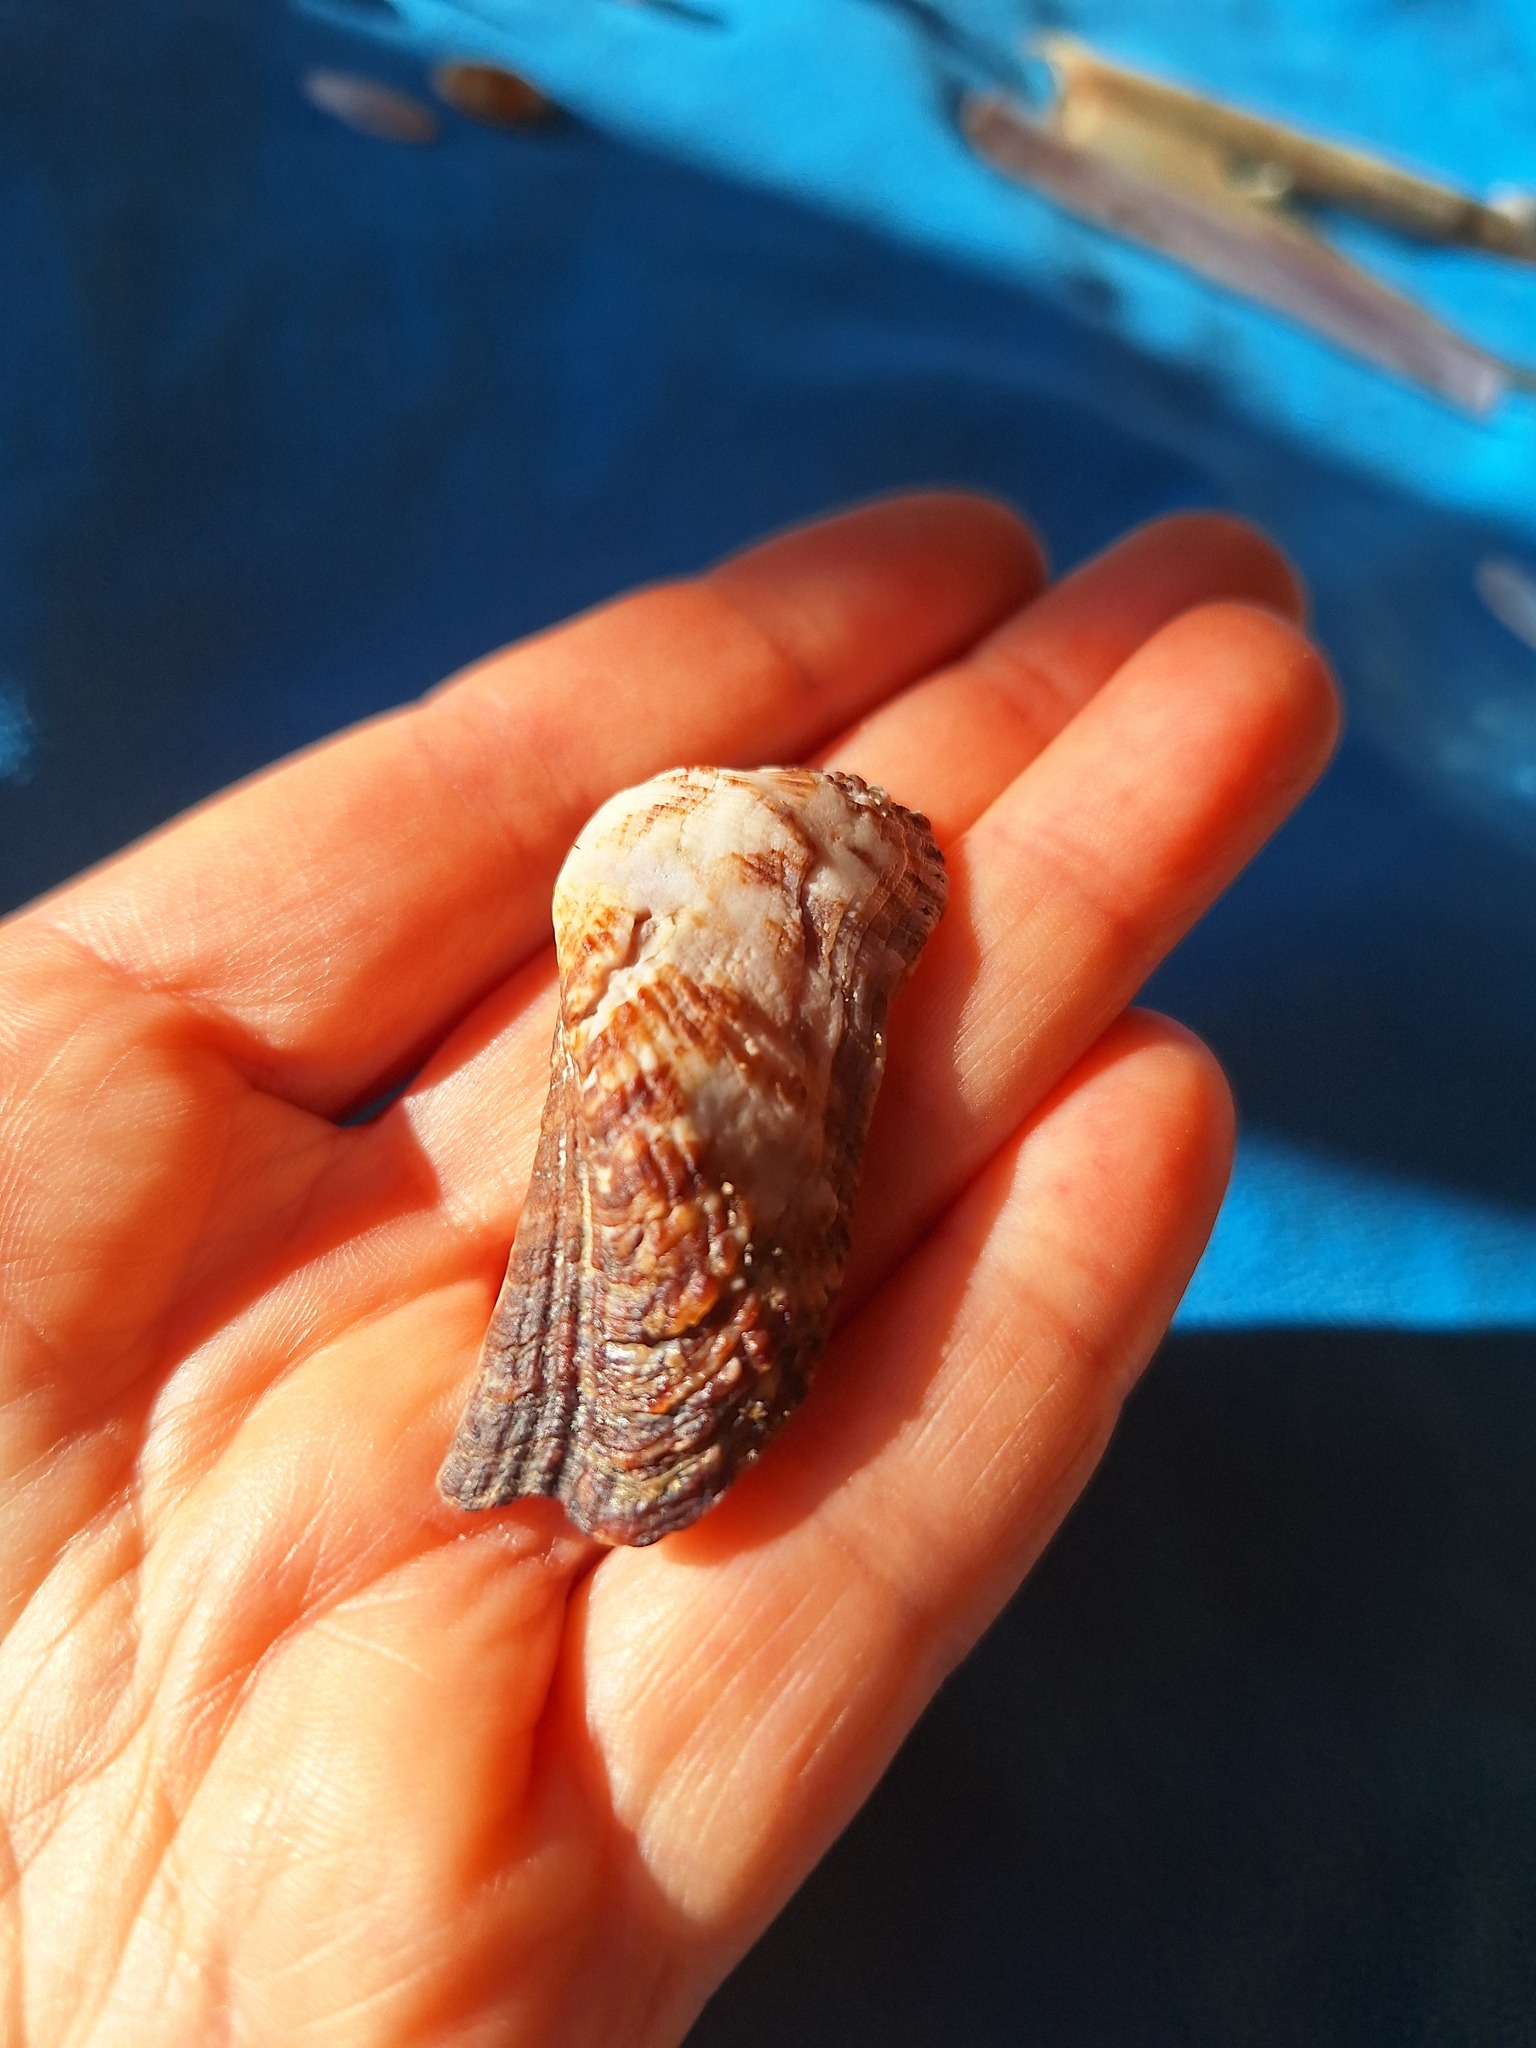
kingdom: Animalia
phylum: Mollusca
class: Bivalvia
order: Arcida
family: Arcidae
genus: Arca
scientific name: Arca noae
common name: Noah's arch
